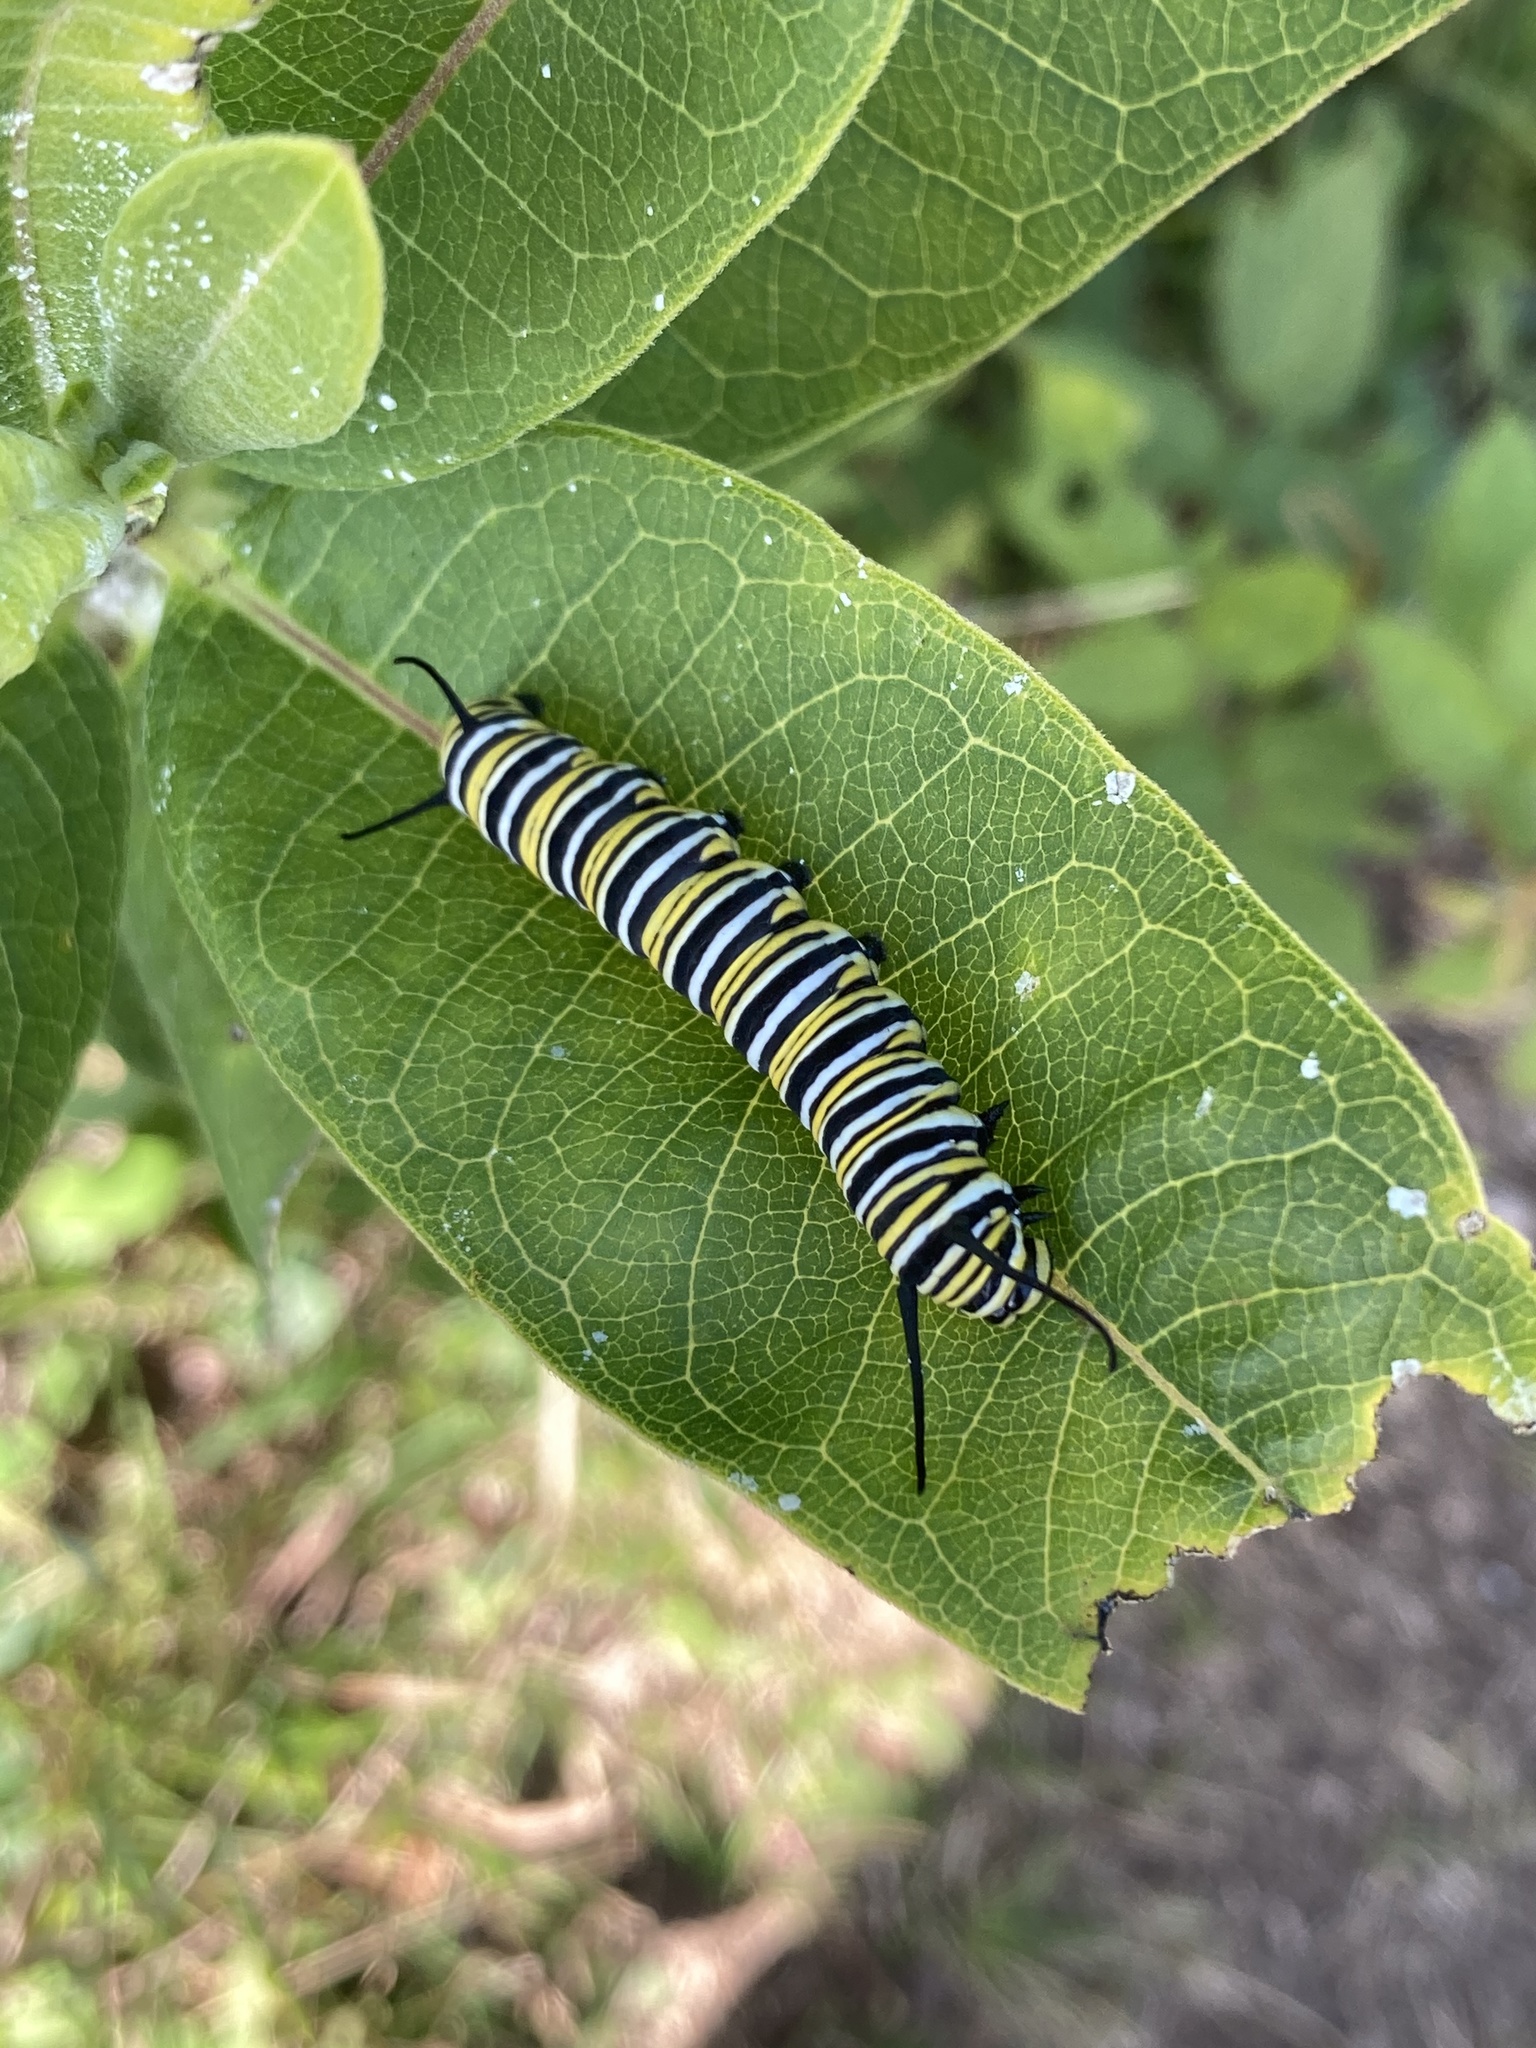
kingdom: Animalia
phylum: Arthropoda
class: Insecta
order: Lepidoptera
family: Nymphalidae
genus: Danaus
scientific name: Danaus plexippus
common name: Monarch
